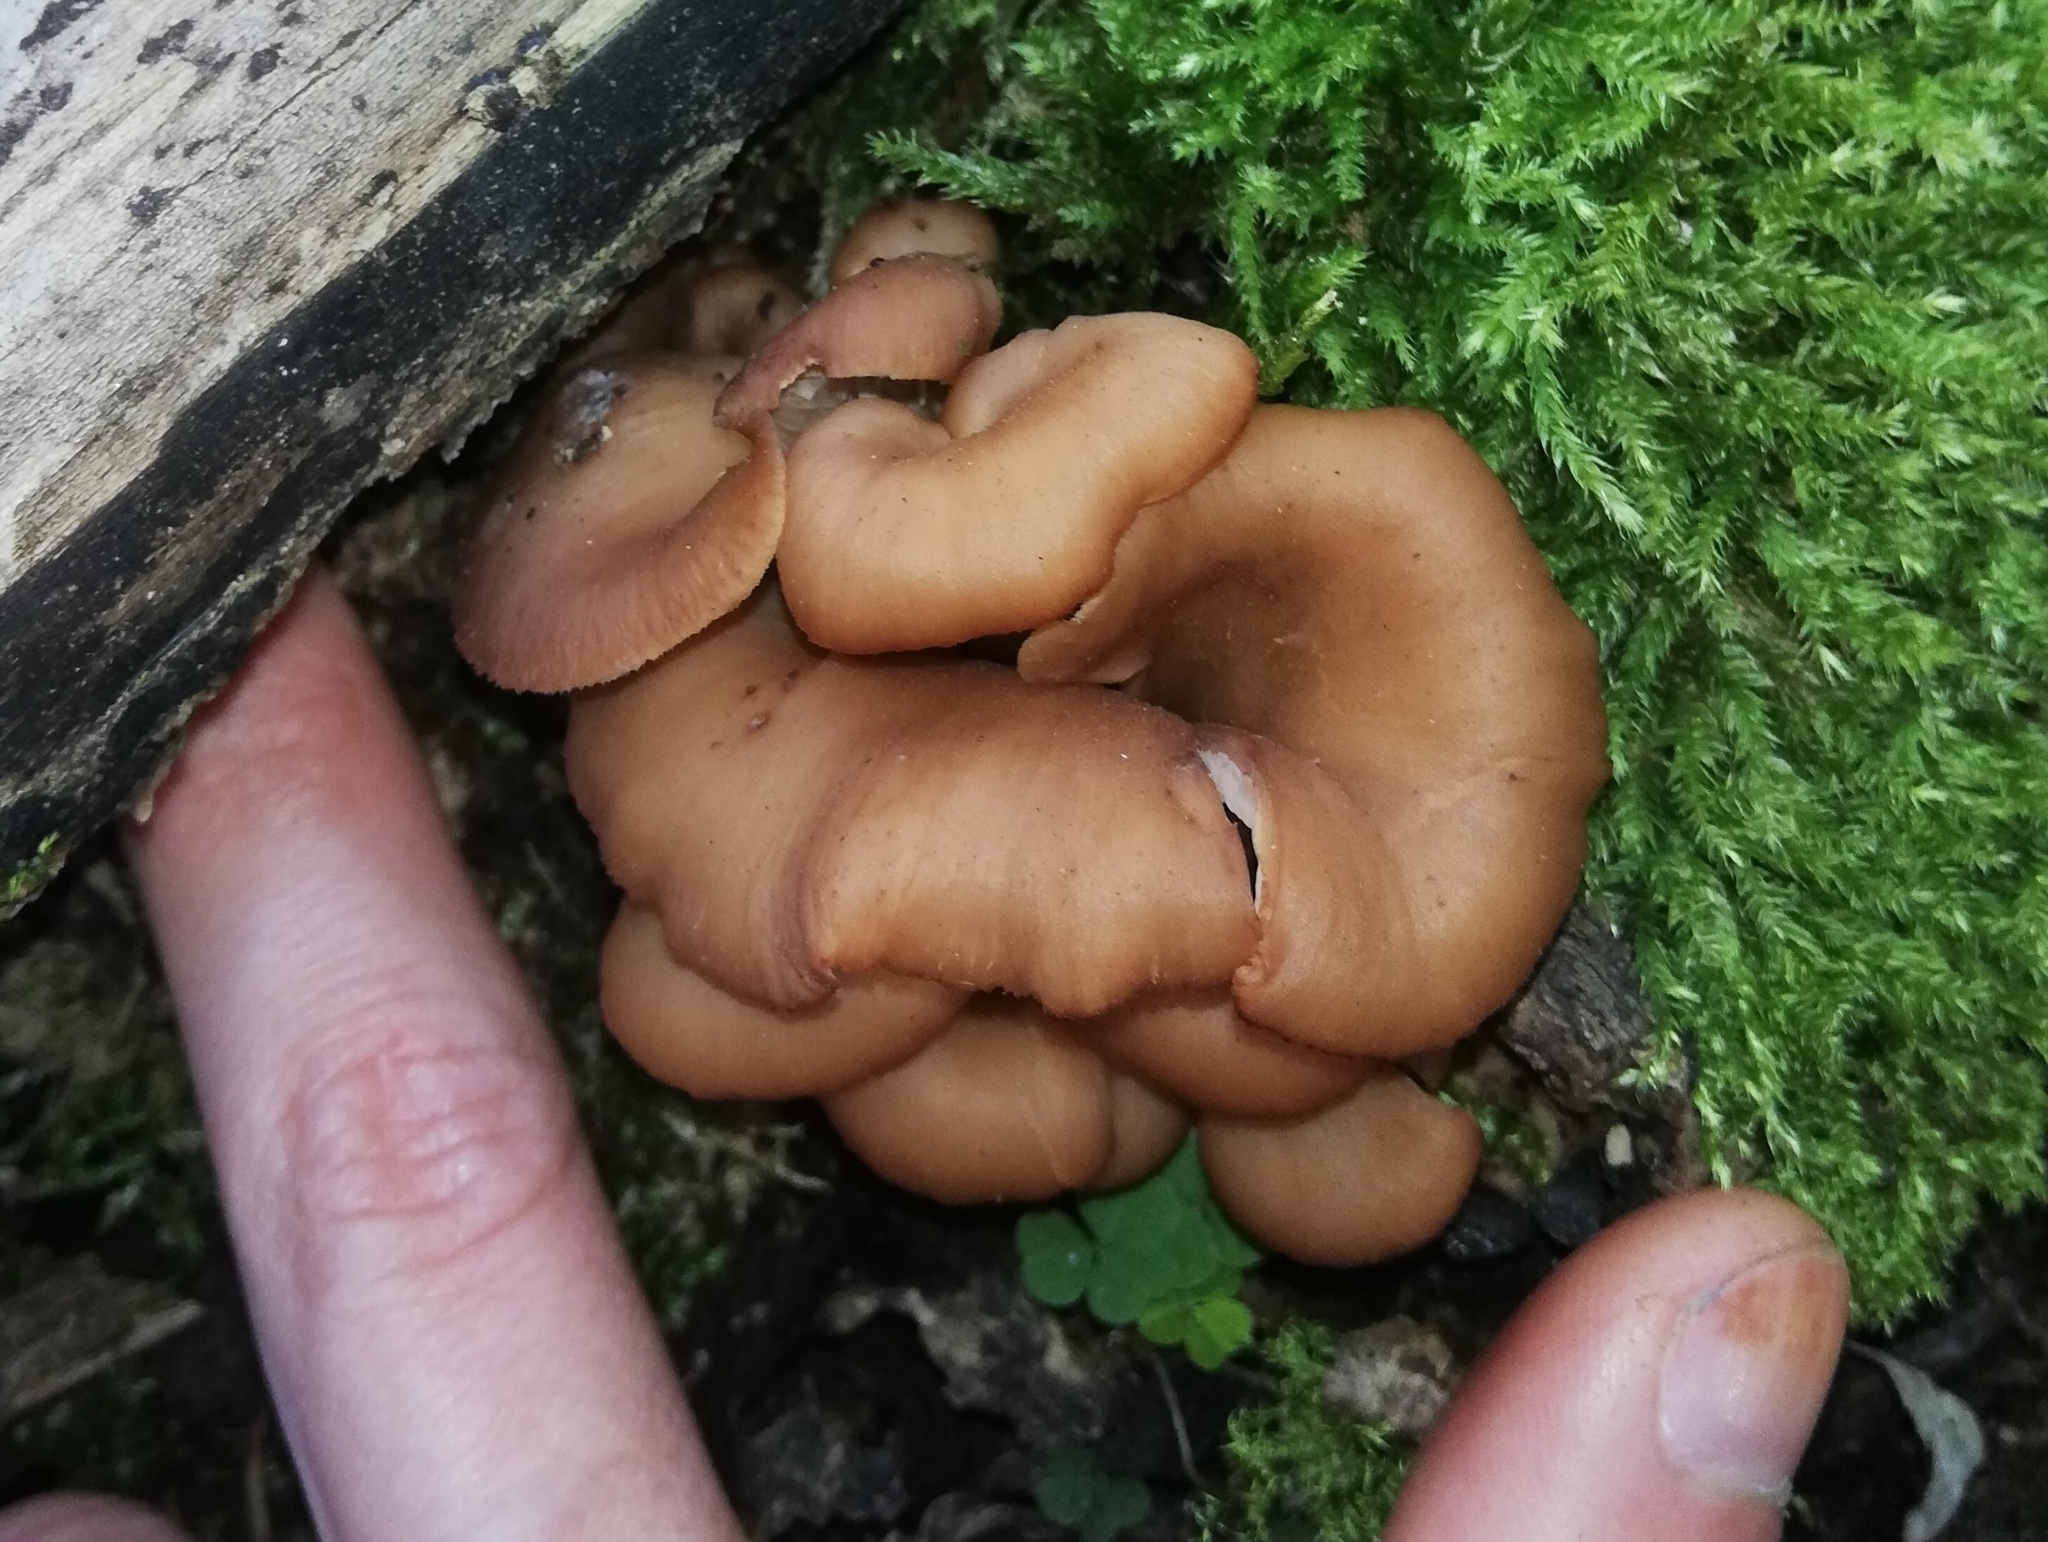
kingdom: Fungi
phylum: Basidiomycota
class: Agaricomycetes
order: Russulales
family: Auriscalpiaceae
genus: Lentinellus
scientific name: Lentinellus cochleatus
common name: Aniseed cockleshell
